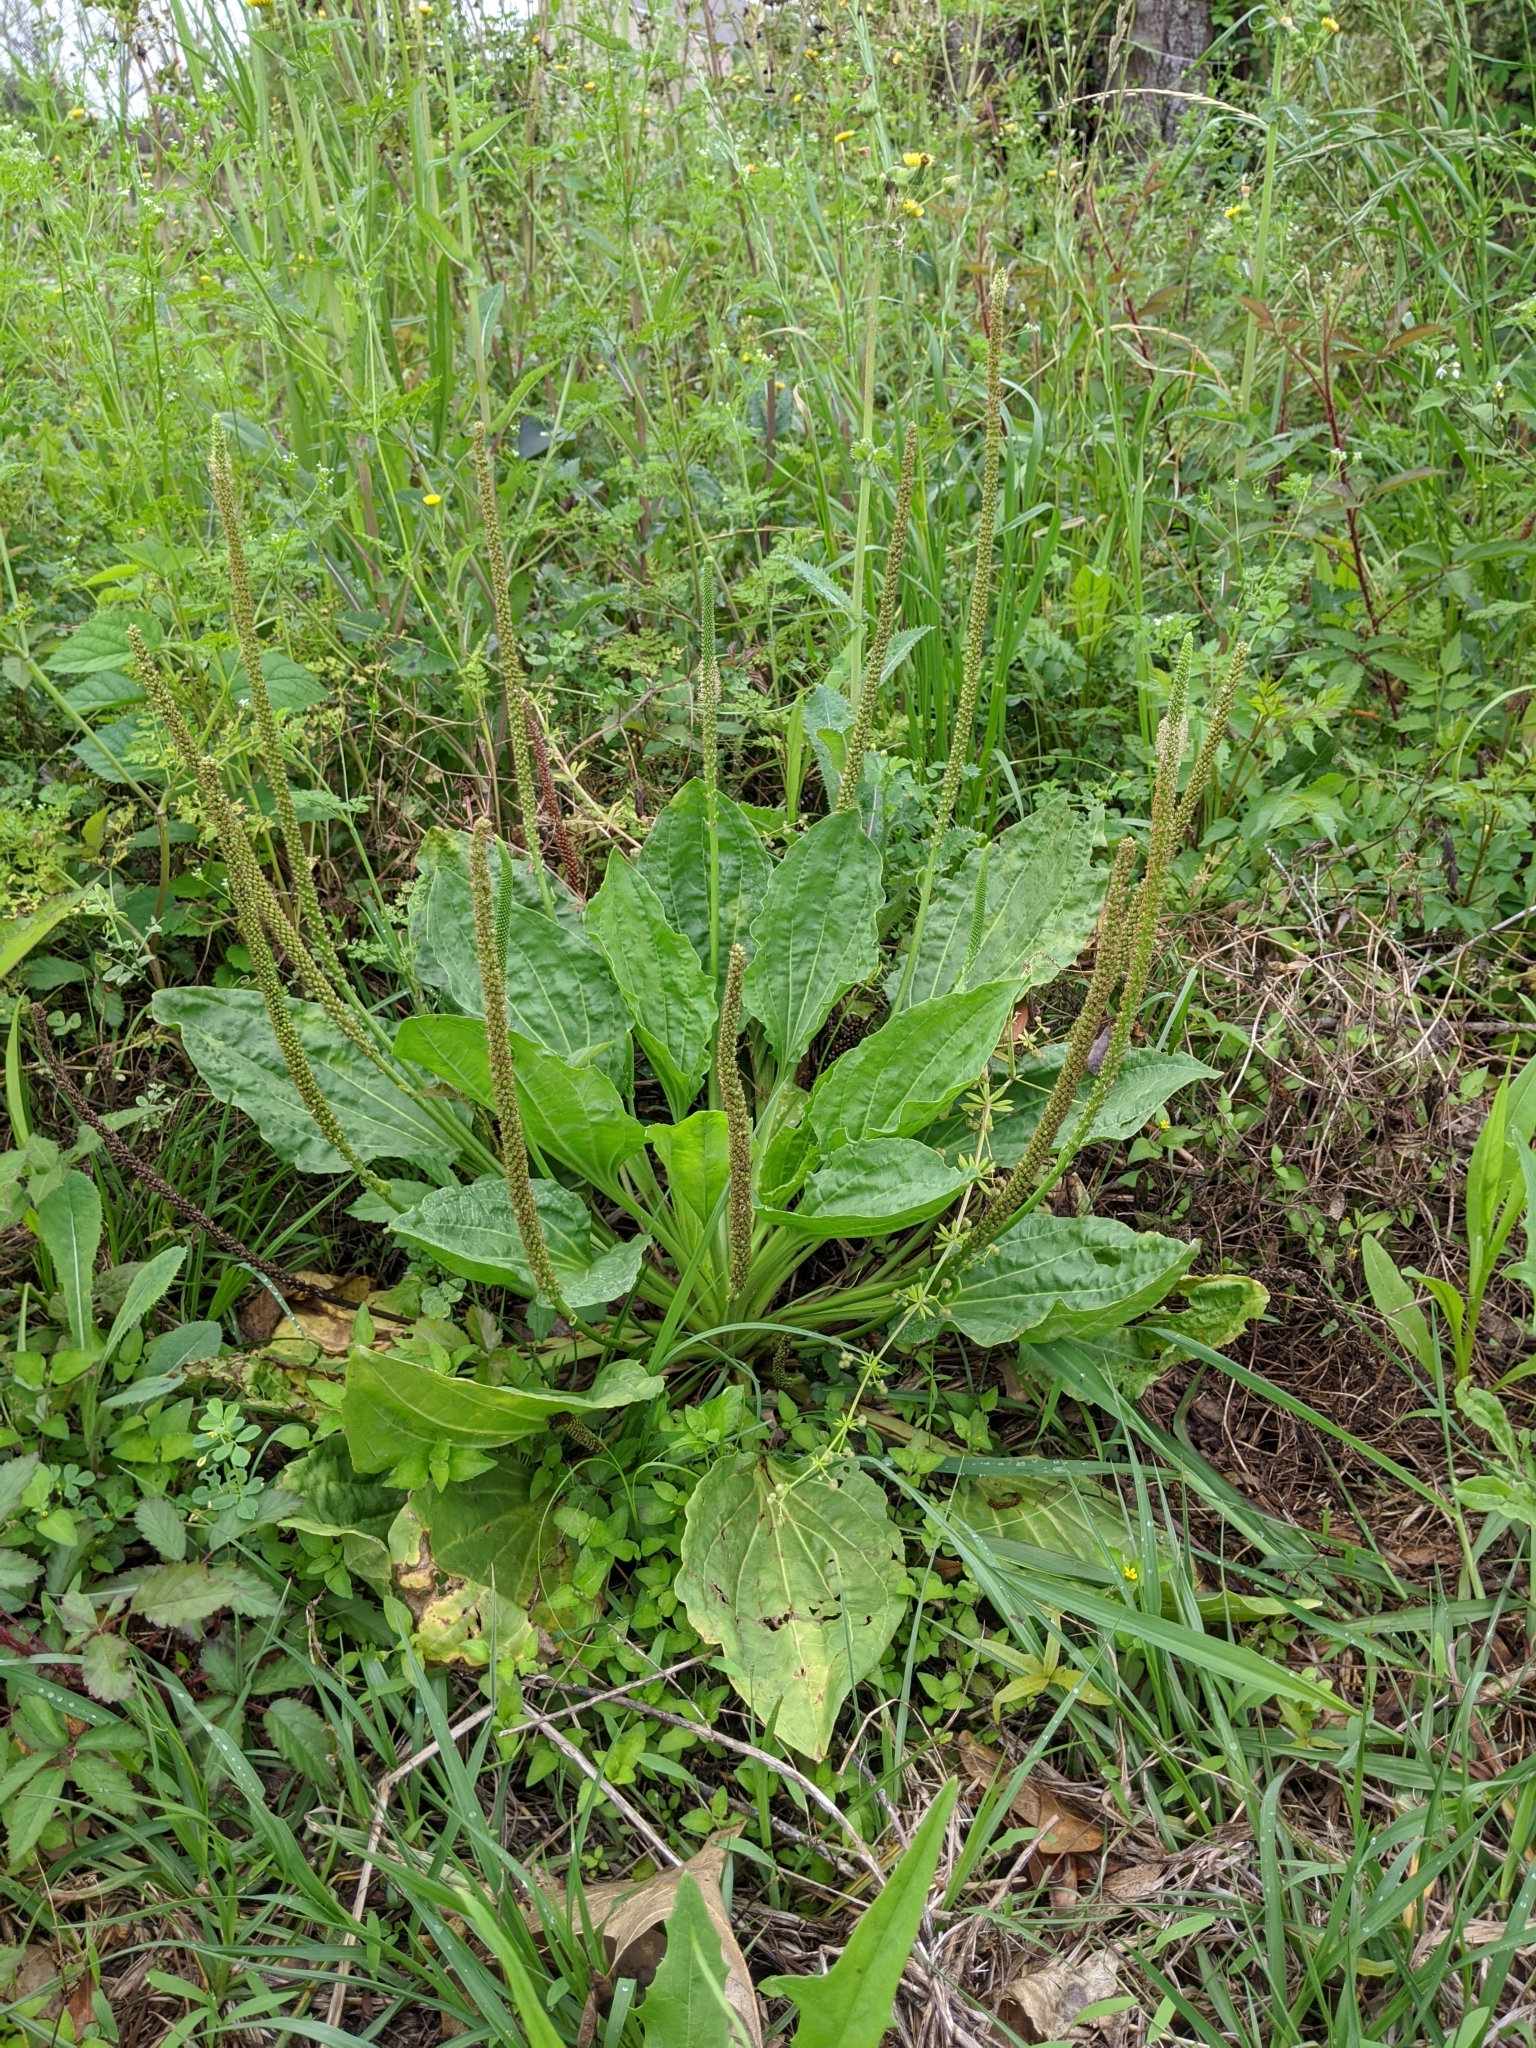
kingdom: Plantae
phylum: Tracheophyta
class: Magnoliopsida
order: Lamiales
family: Plantaginaceae
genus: Plantago
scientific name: Plantago major
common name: Common plantain
